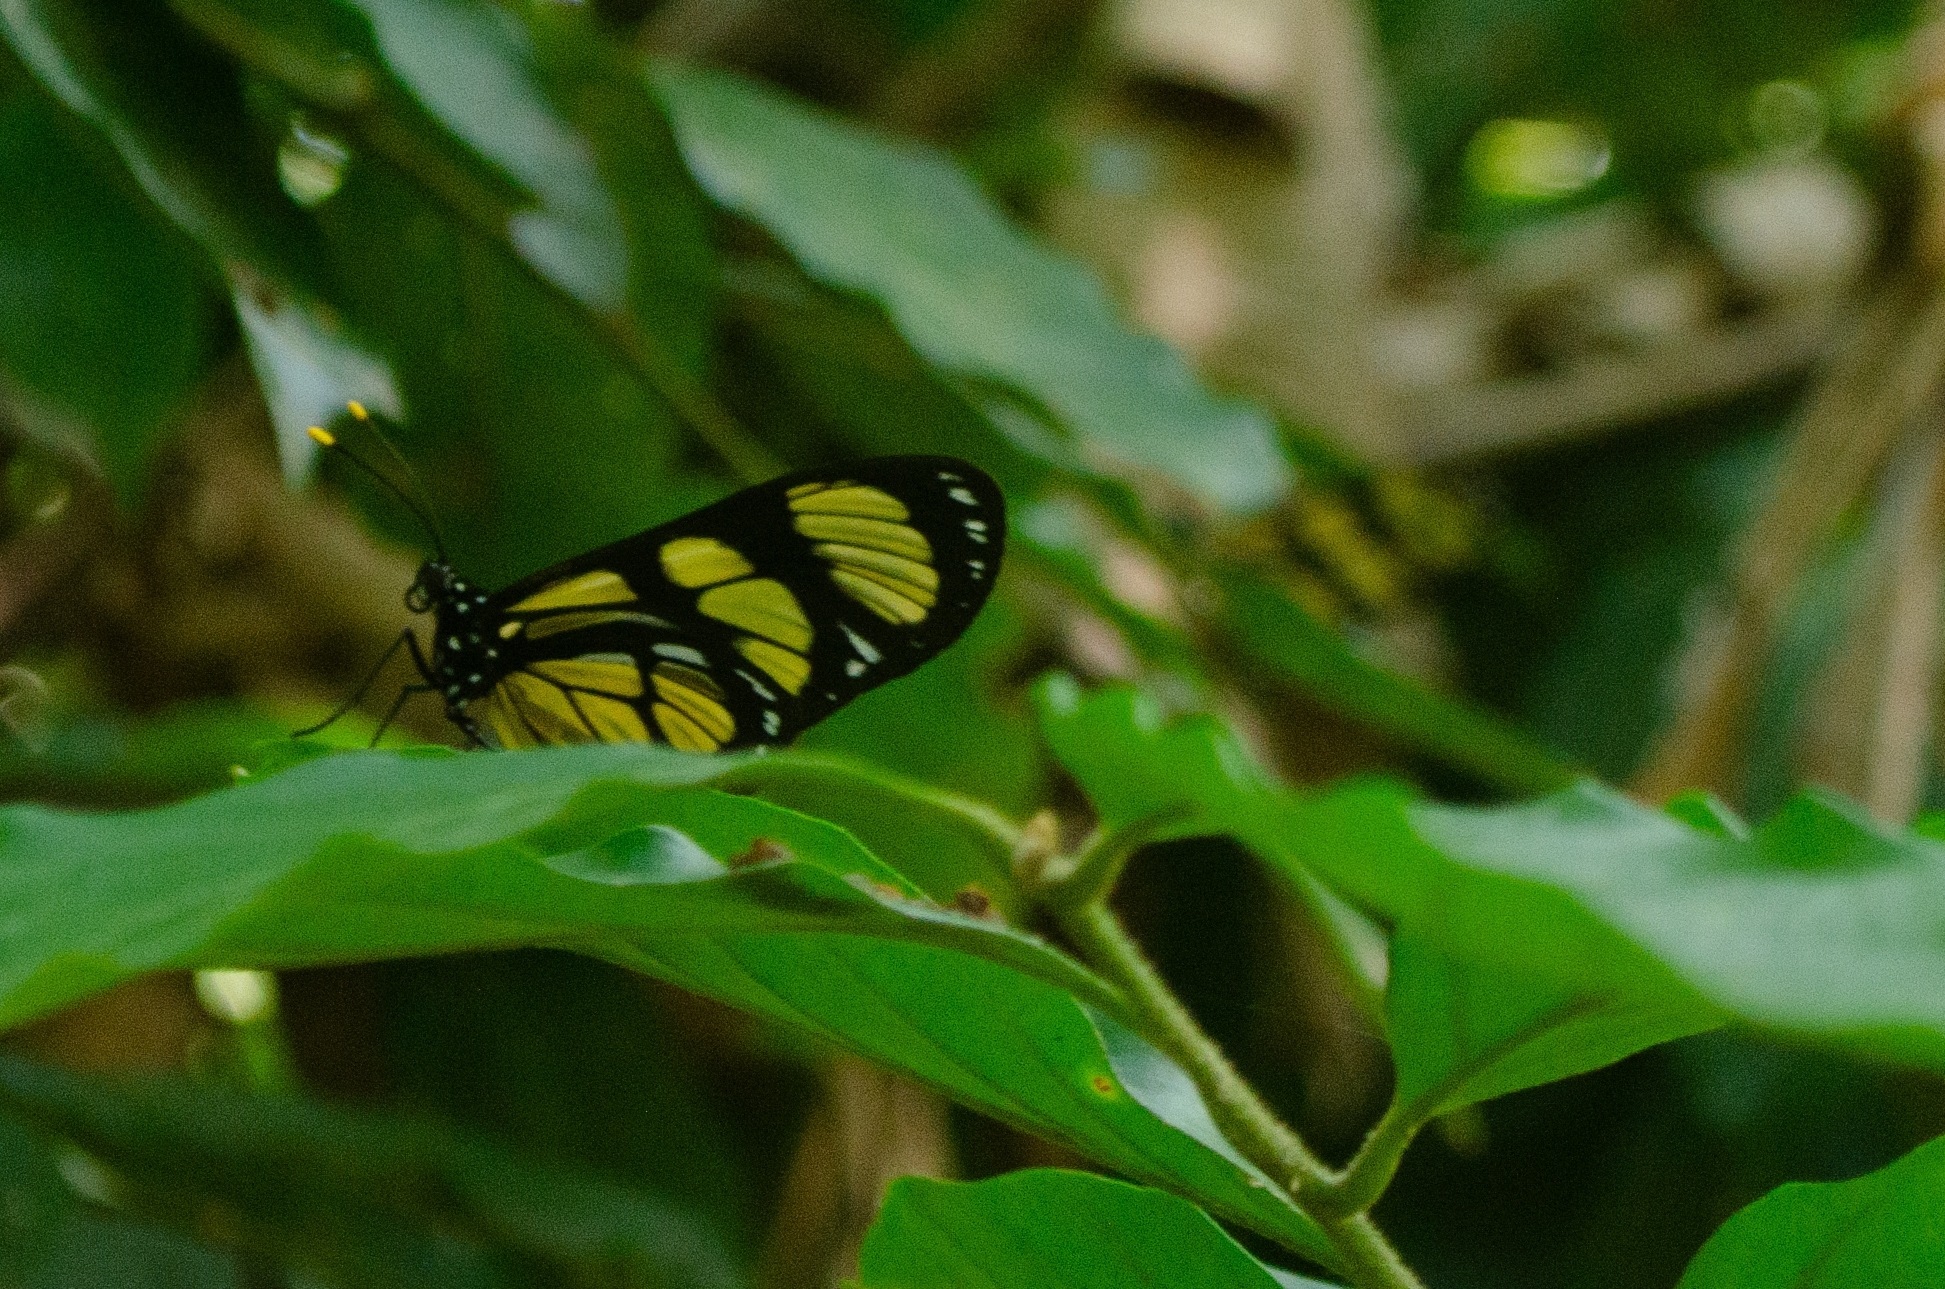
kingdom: Animalia
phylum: Arthropoda
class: Insecta
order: Lepidoptera
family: Nymphalidae
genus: Methona
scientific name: Methona themisto
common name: Themisto amberwing
